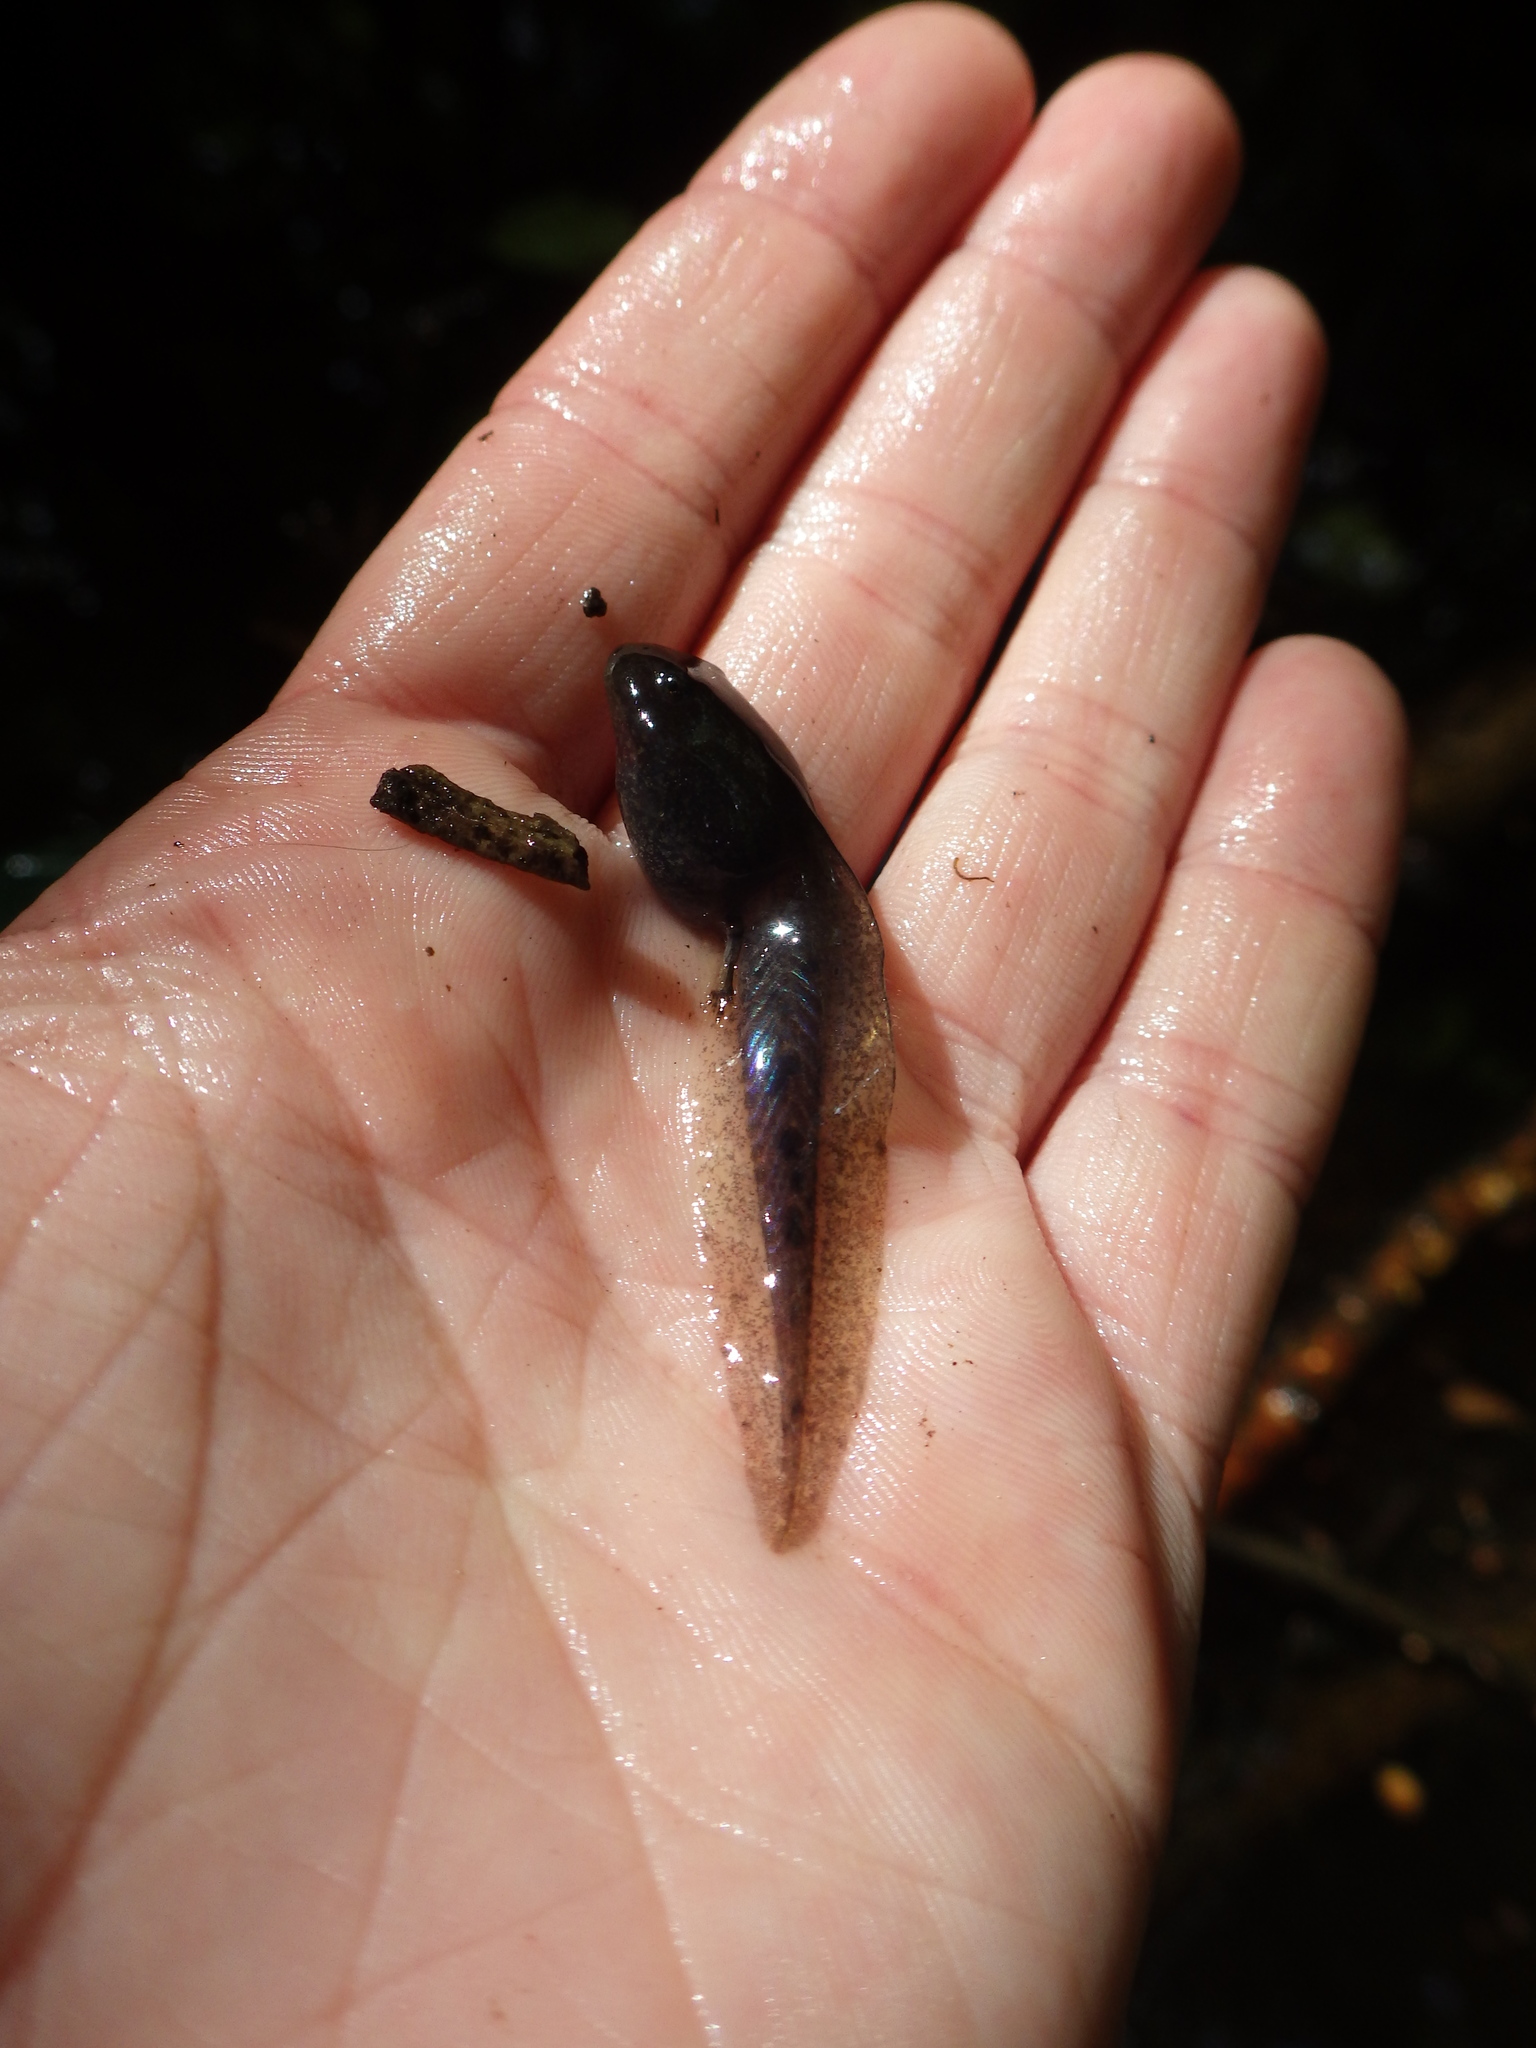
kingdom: Animalia
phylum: Chordata
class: Amphibia
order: Anura
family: Ranidae
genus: Rana
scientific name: Rana temporaria
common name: Common frog
